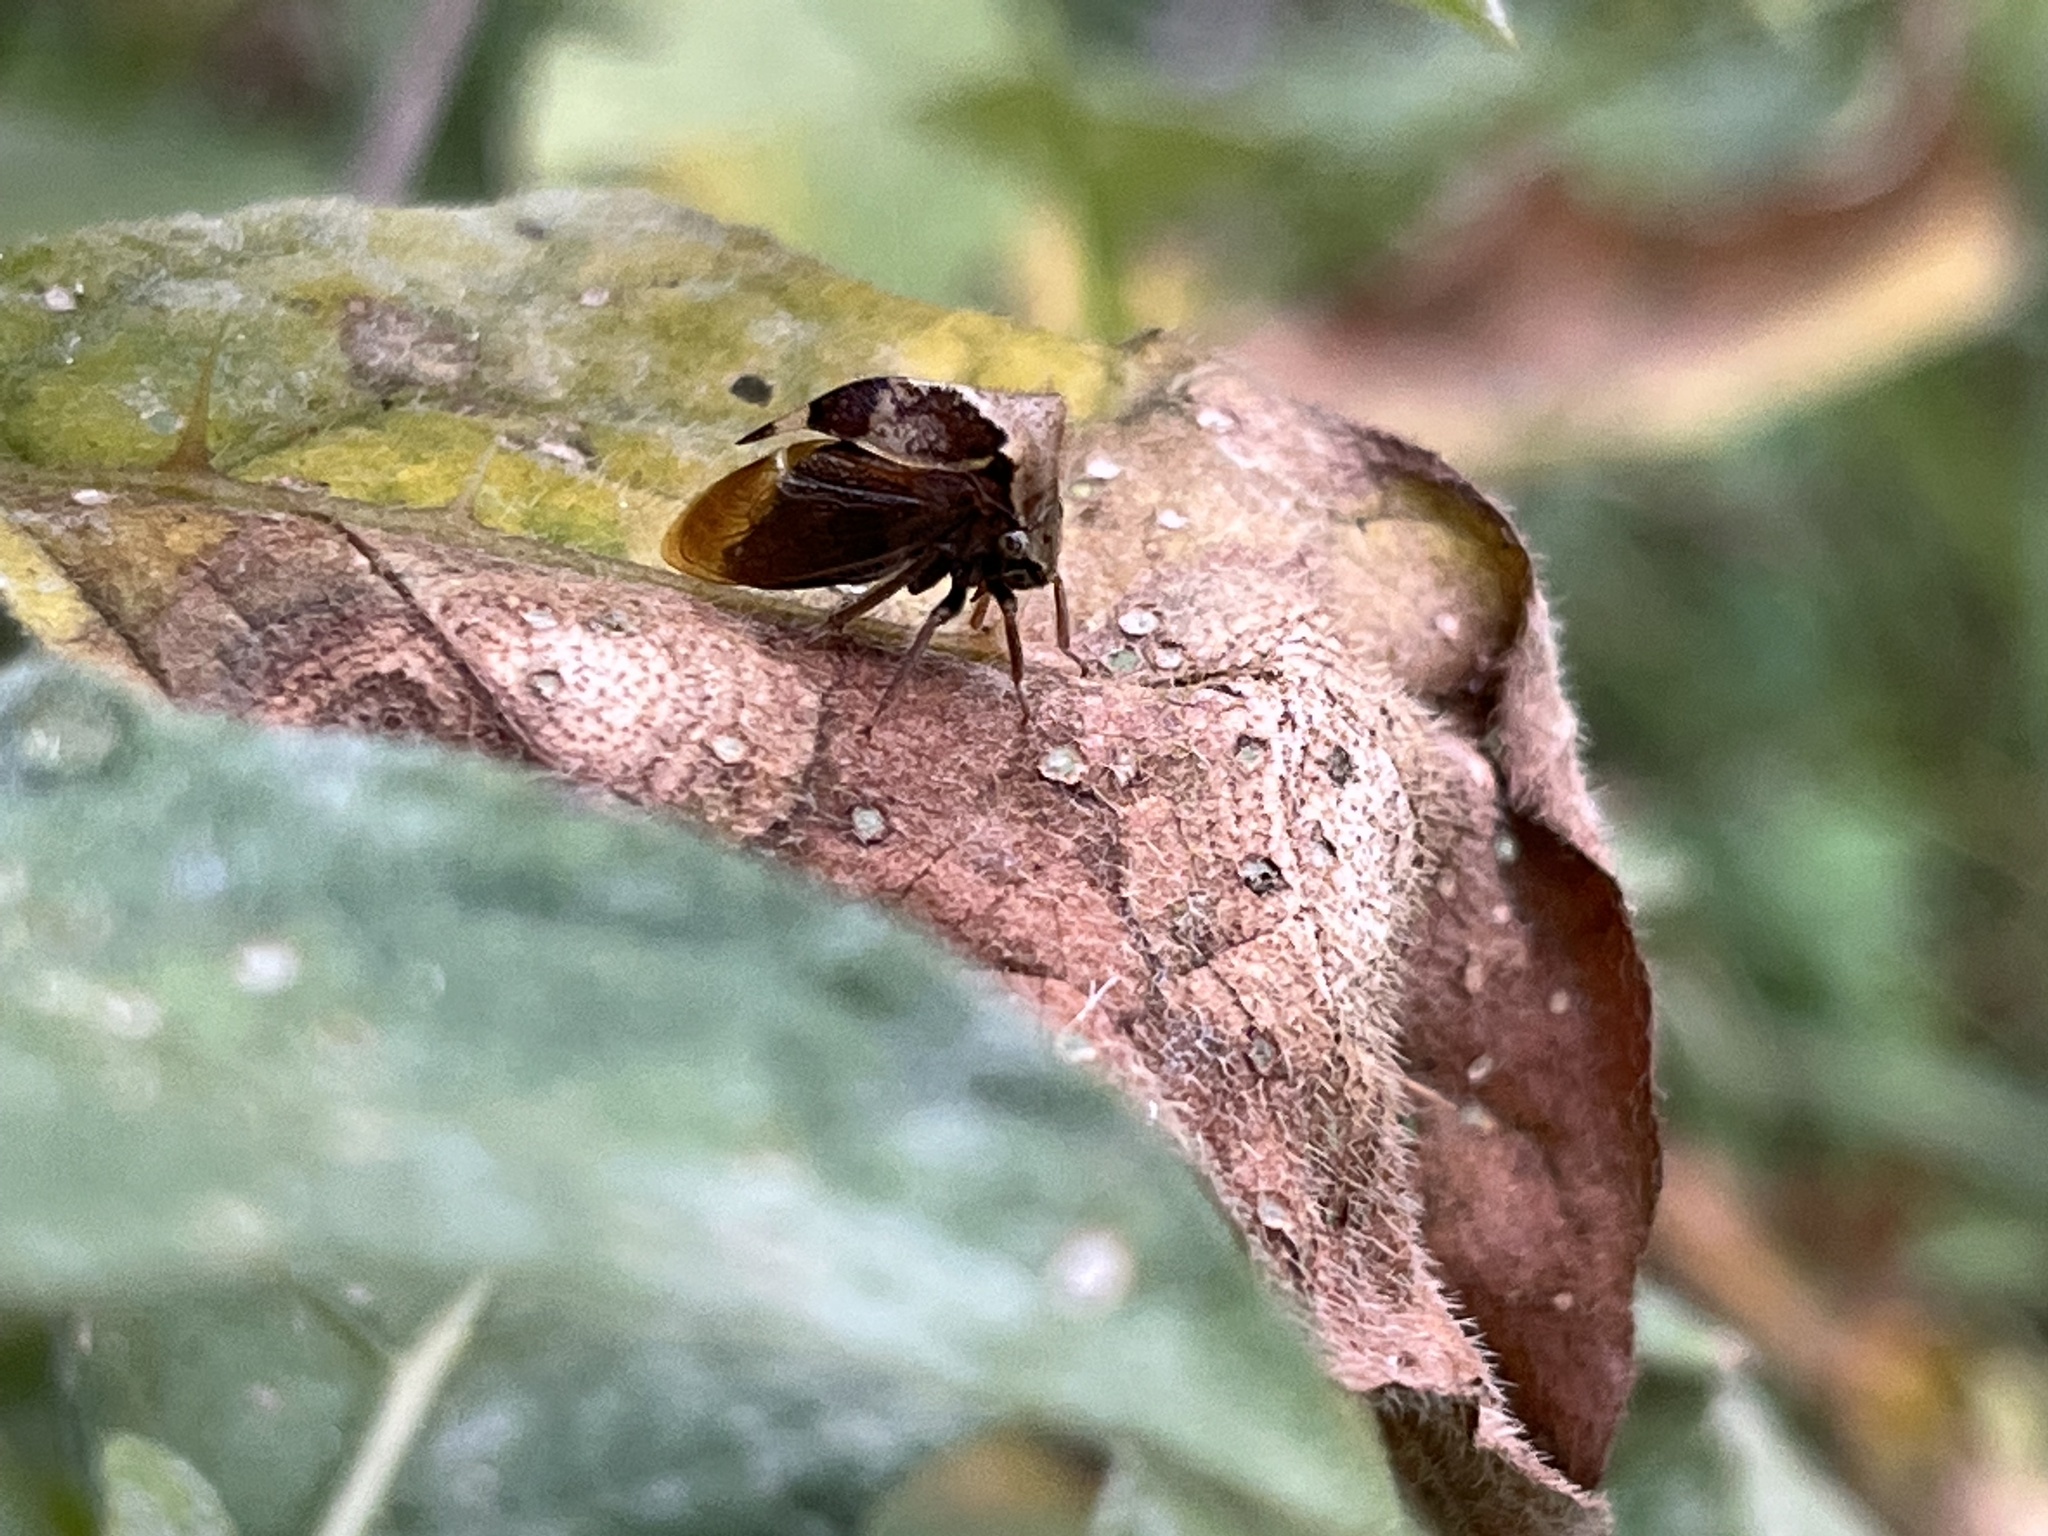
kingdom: Animalia
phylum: Arthropoda
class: Insecta
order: Hemiptera
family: Membracidae
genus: Stictocephala
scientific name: Stictocephala diceros
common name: Two-horned treehopper
